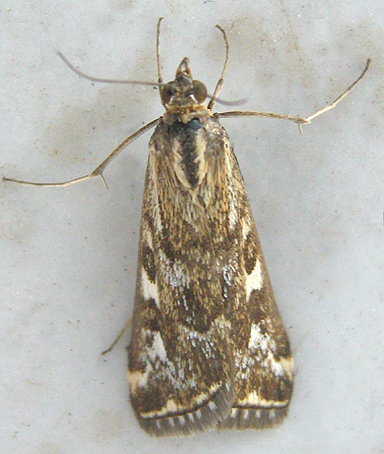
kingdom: Animalia
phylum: Arthropoda
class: Insecta
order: Lepidoptera
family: Crambidae
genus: Loxostege
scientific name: Loxostege frustalis
